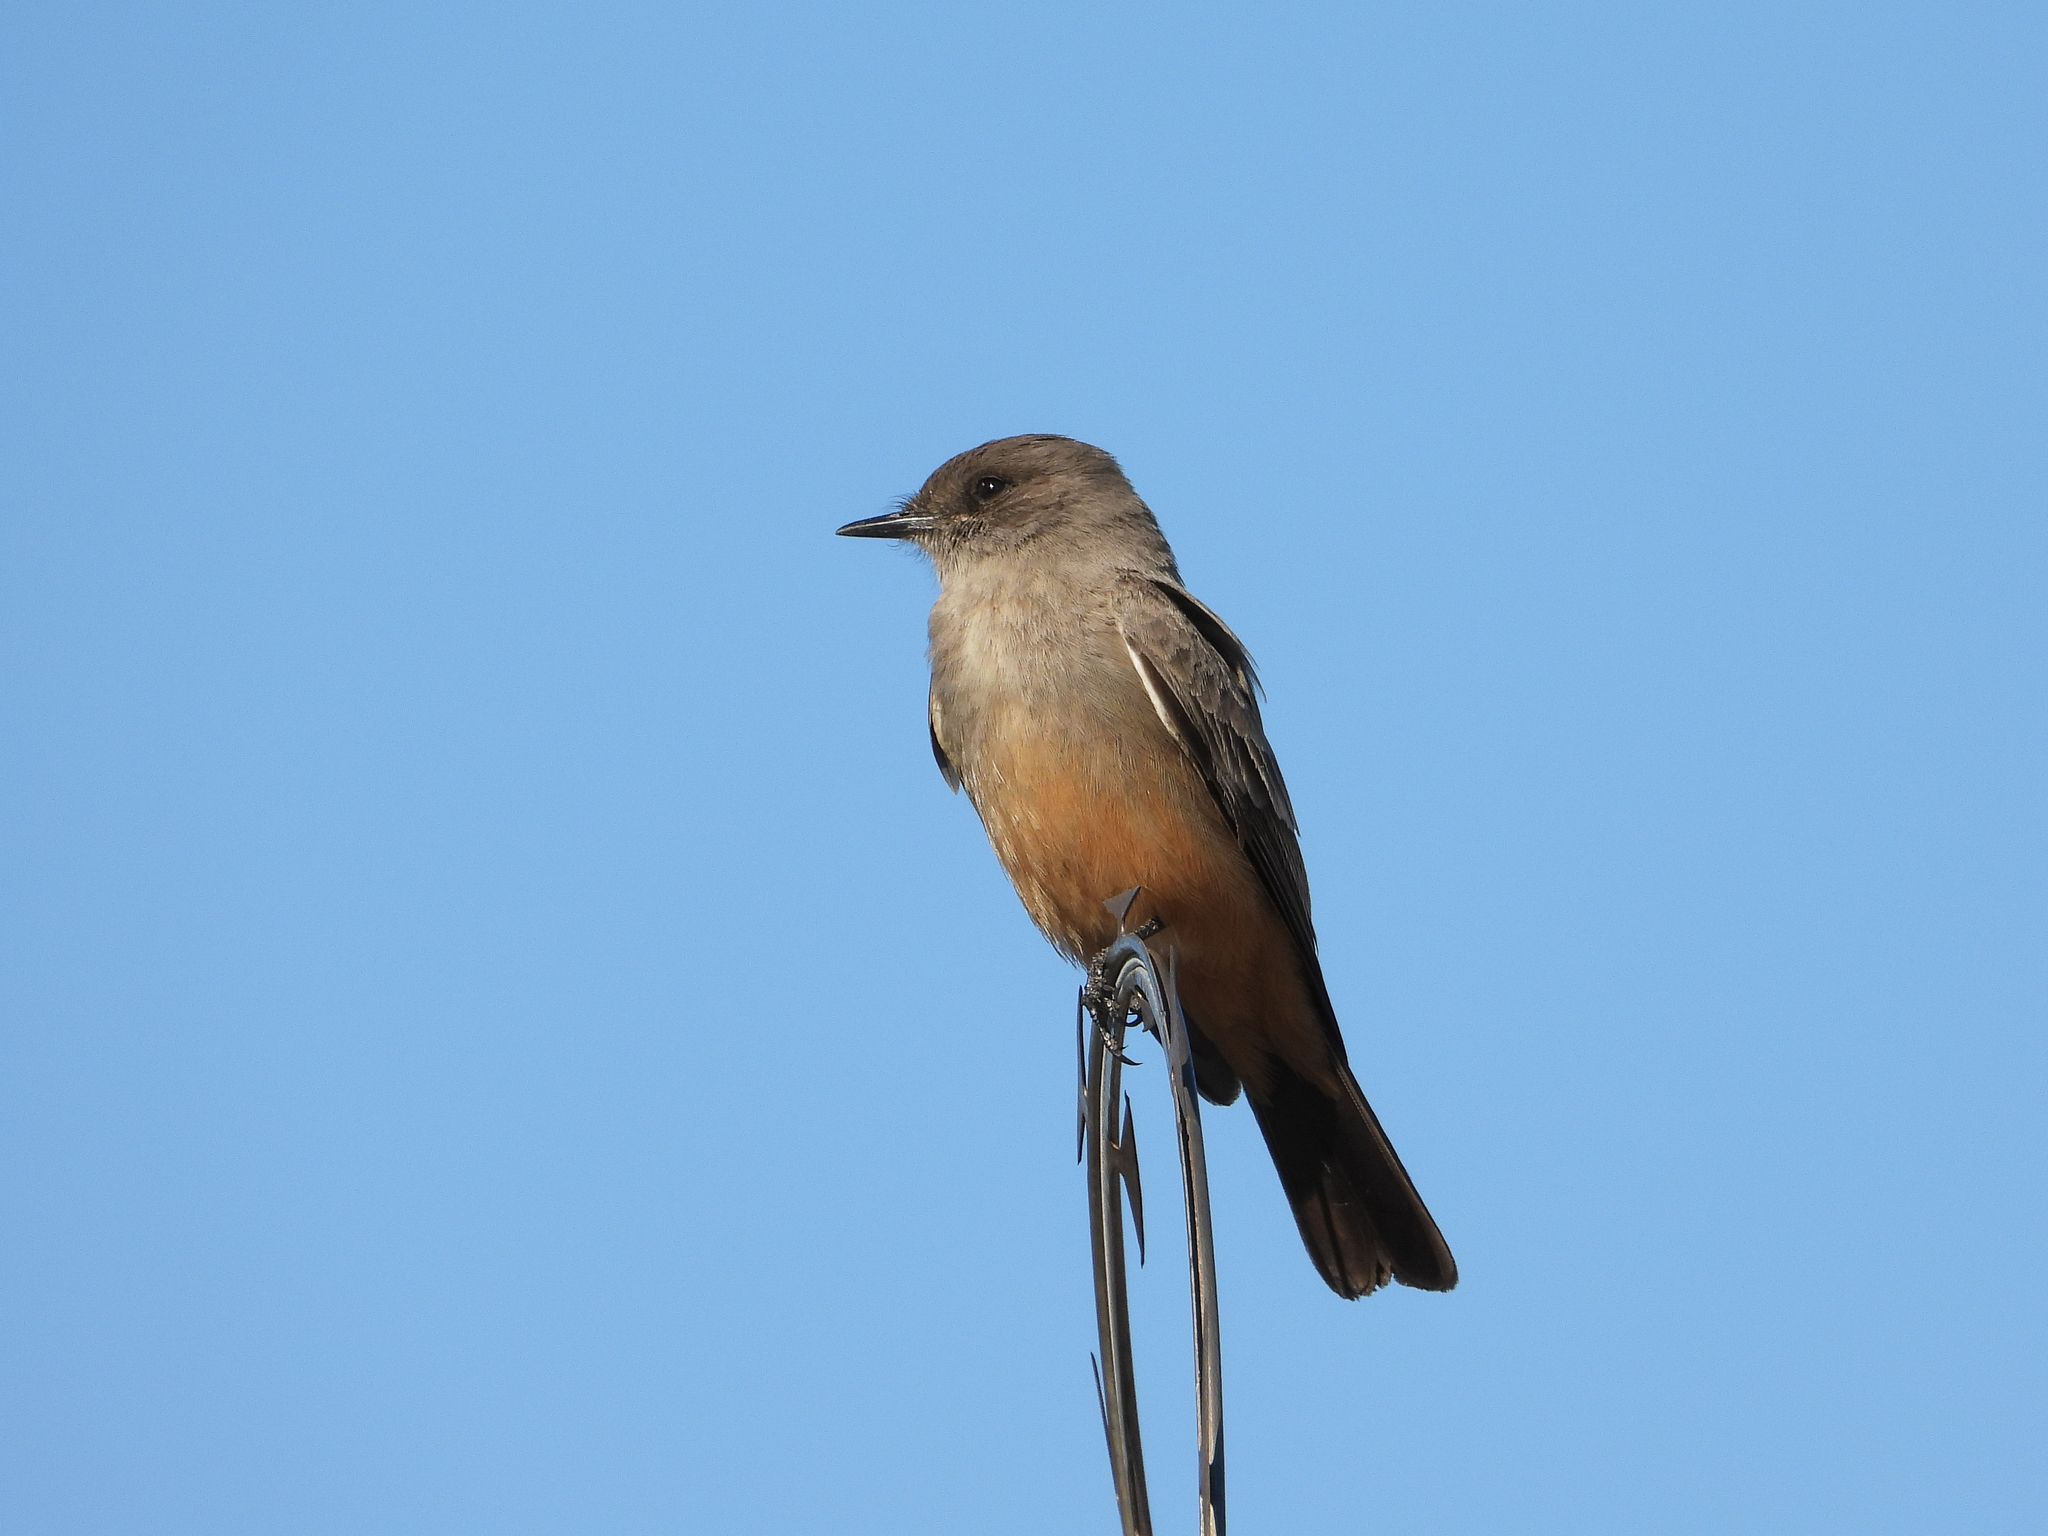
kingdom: Animalia
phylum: Chordata
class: Aves
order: Passeriformes
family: Tyrannidae
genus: Sayornis
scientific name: Sayornis saya
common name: Say's phoebe
